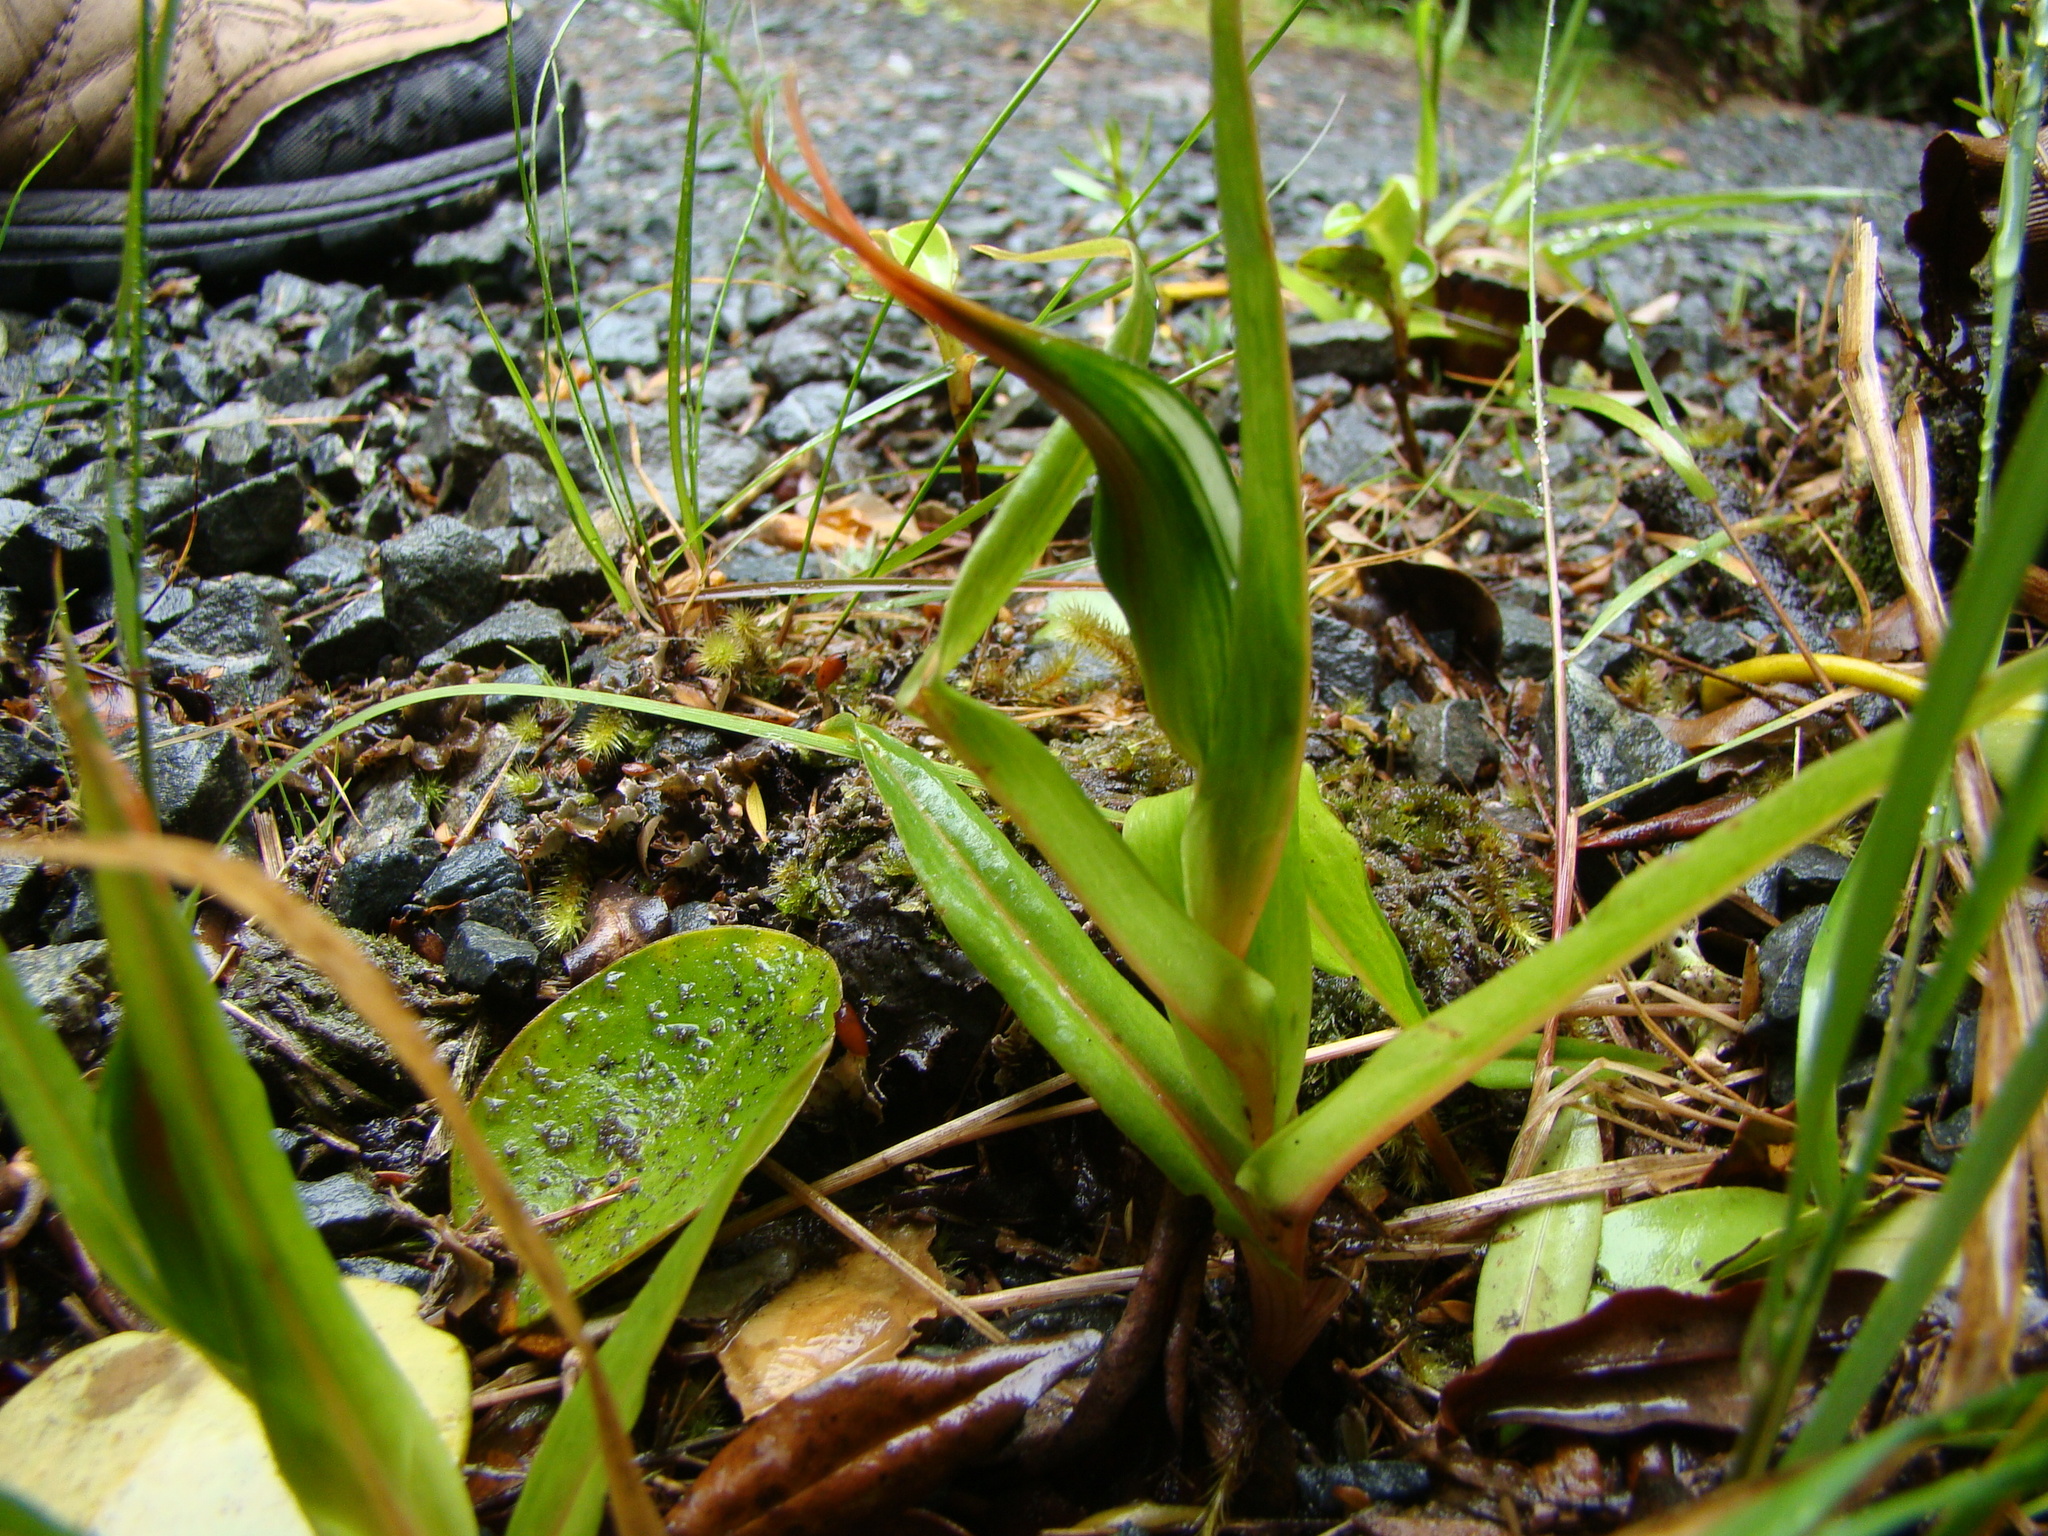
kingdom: Plantae
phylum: Tracheophyta
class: Liliopsida
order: Asparagales
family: Orchidaceae
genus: Pterostylis
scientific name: Pterostylis cardiostigma
